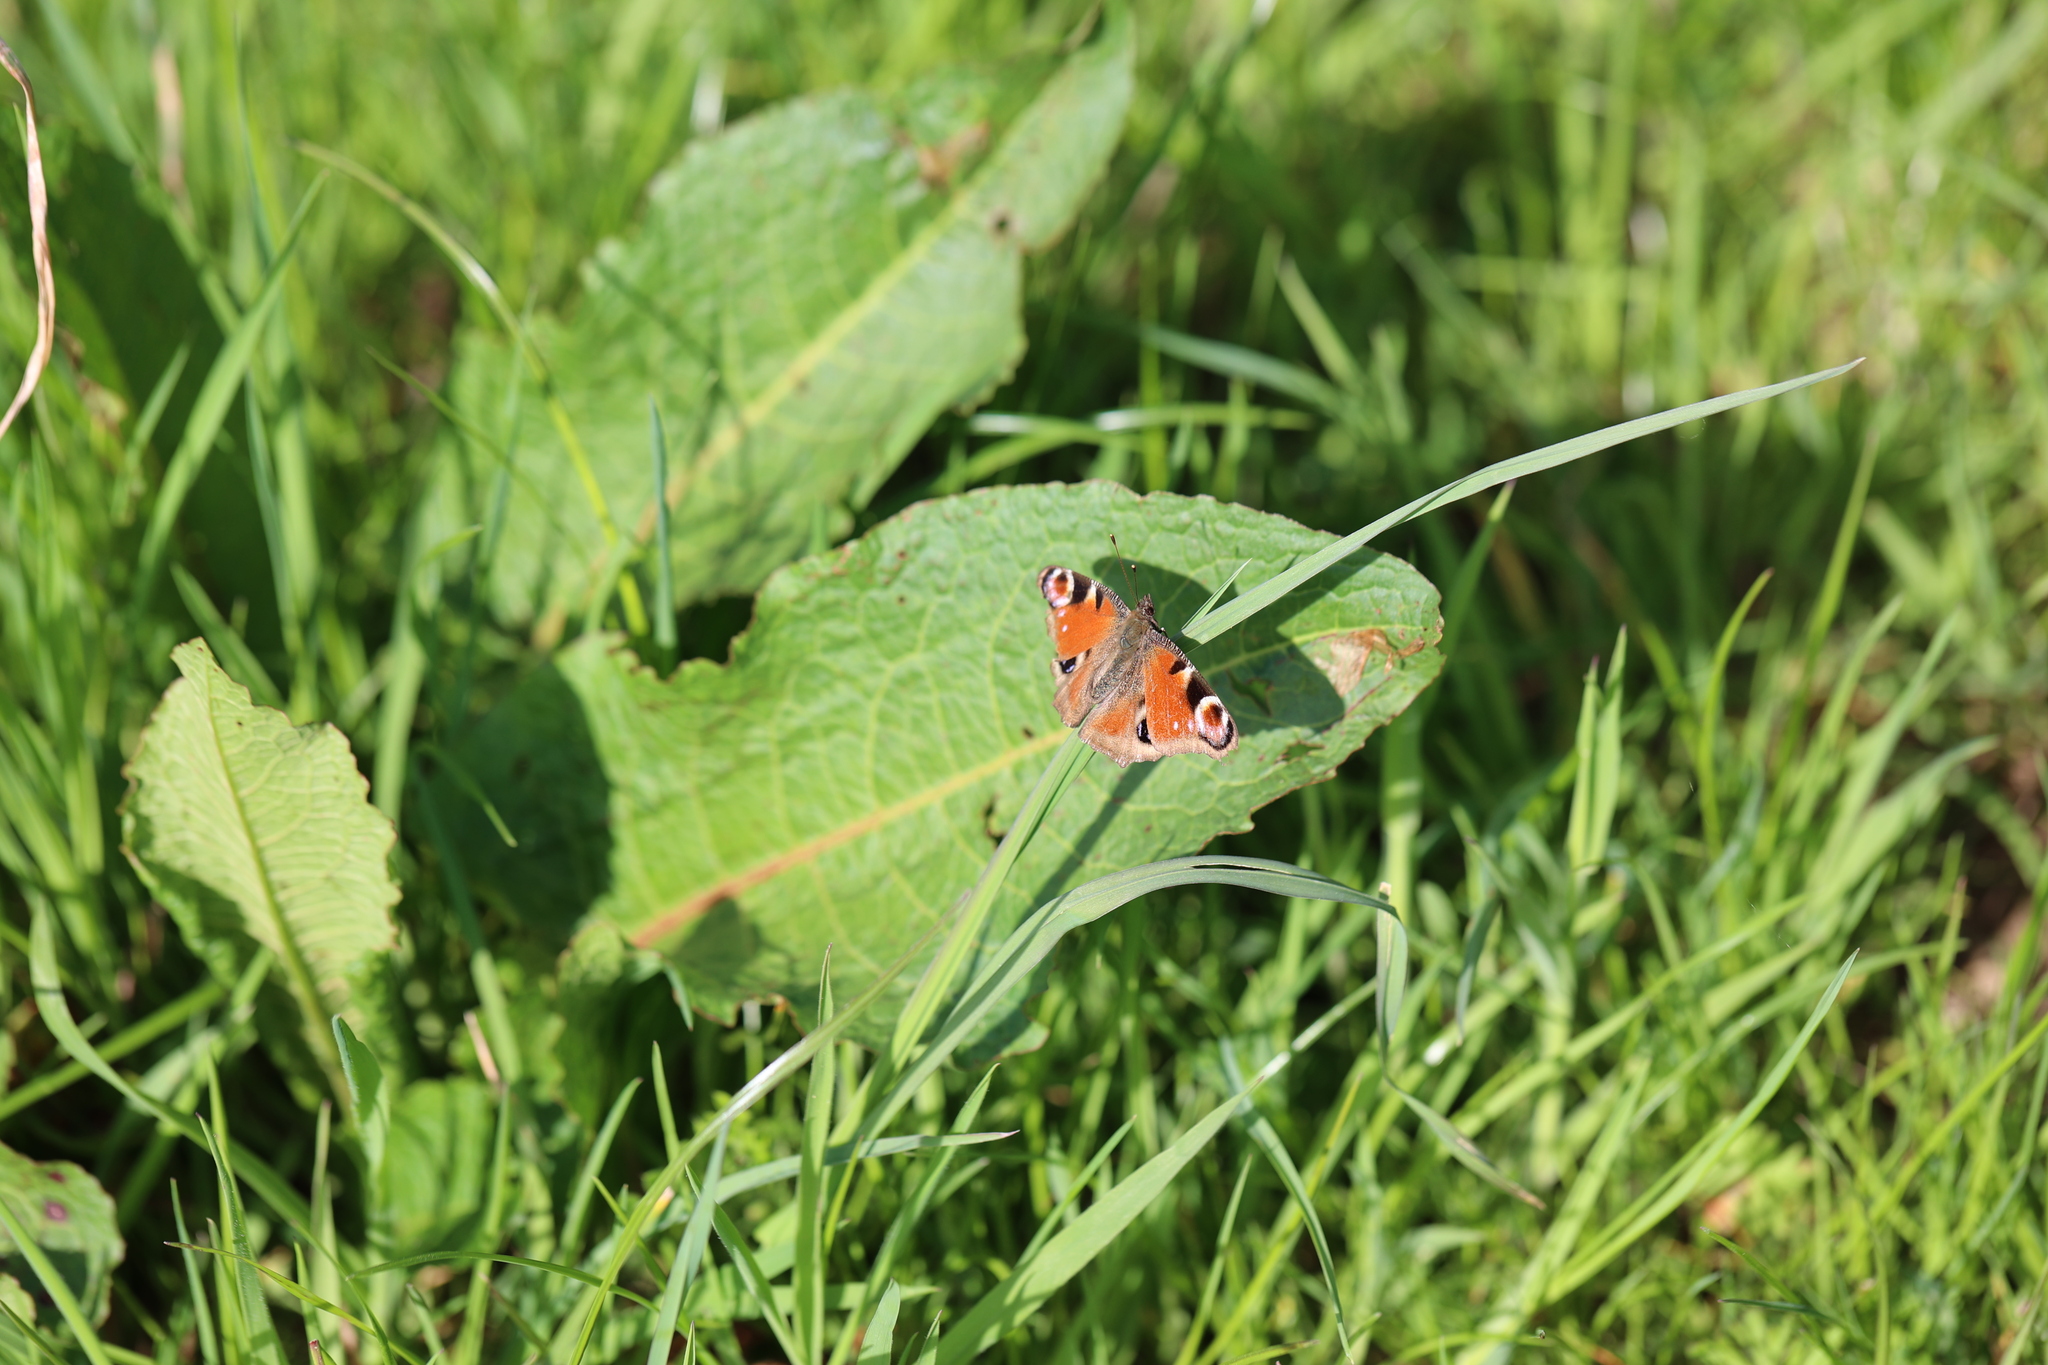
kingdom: Animalia
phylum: Arthropoda
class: Insecta
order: Lepidoptera
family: Nymphalidae
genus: Aglais
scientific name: Aglais io
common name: Peacock
